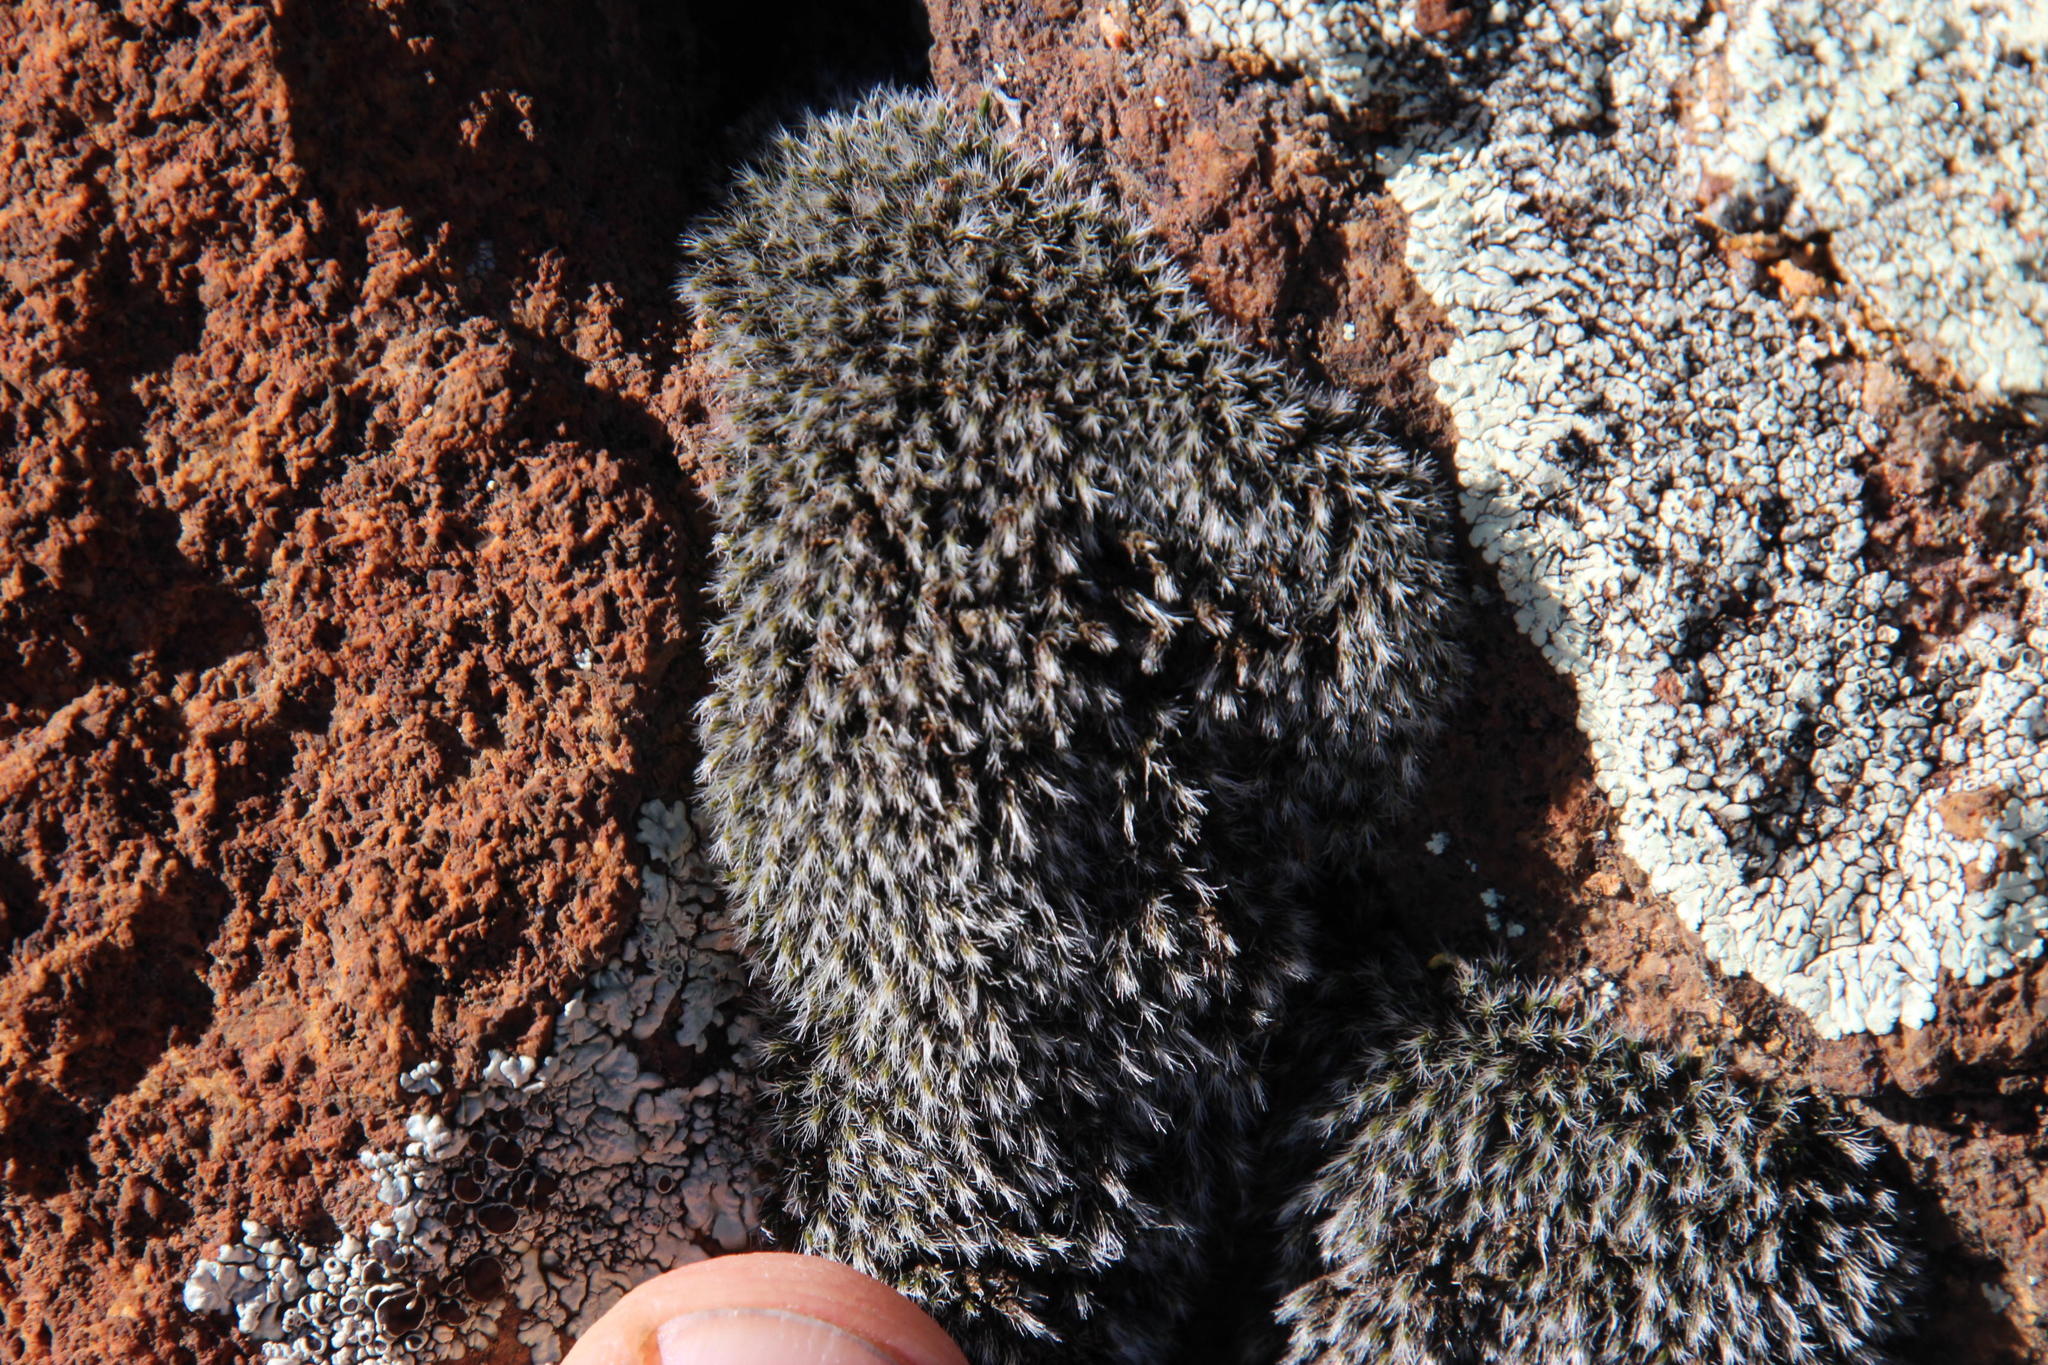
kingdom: Plantae
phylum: Bryophyta
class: Bryopsida
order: Grimmiales
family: Grimmiaceae
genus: Grimmia
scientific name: Grimmia laevigata
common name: Hoary grimmia
